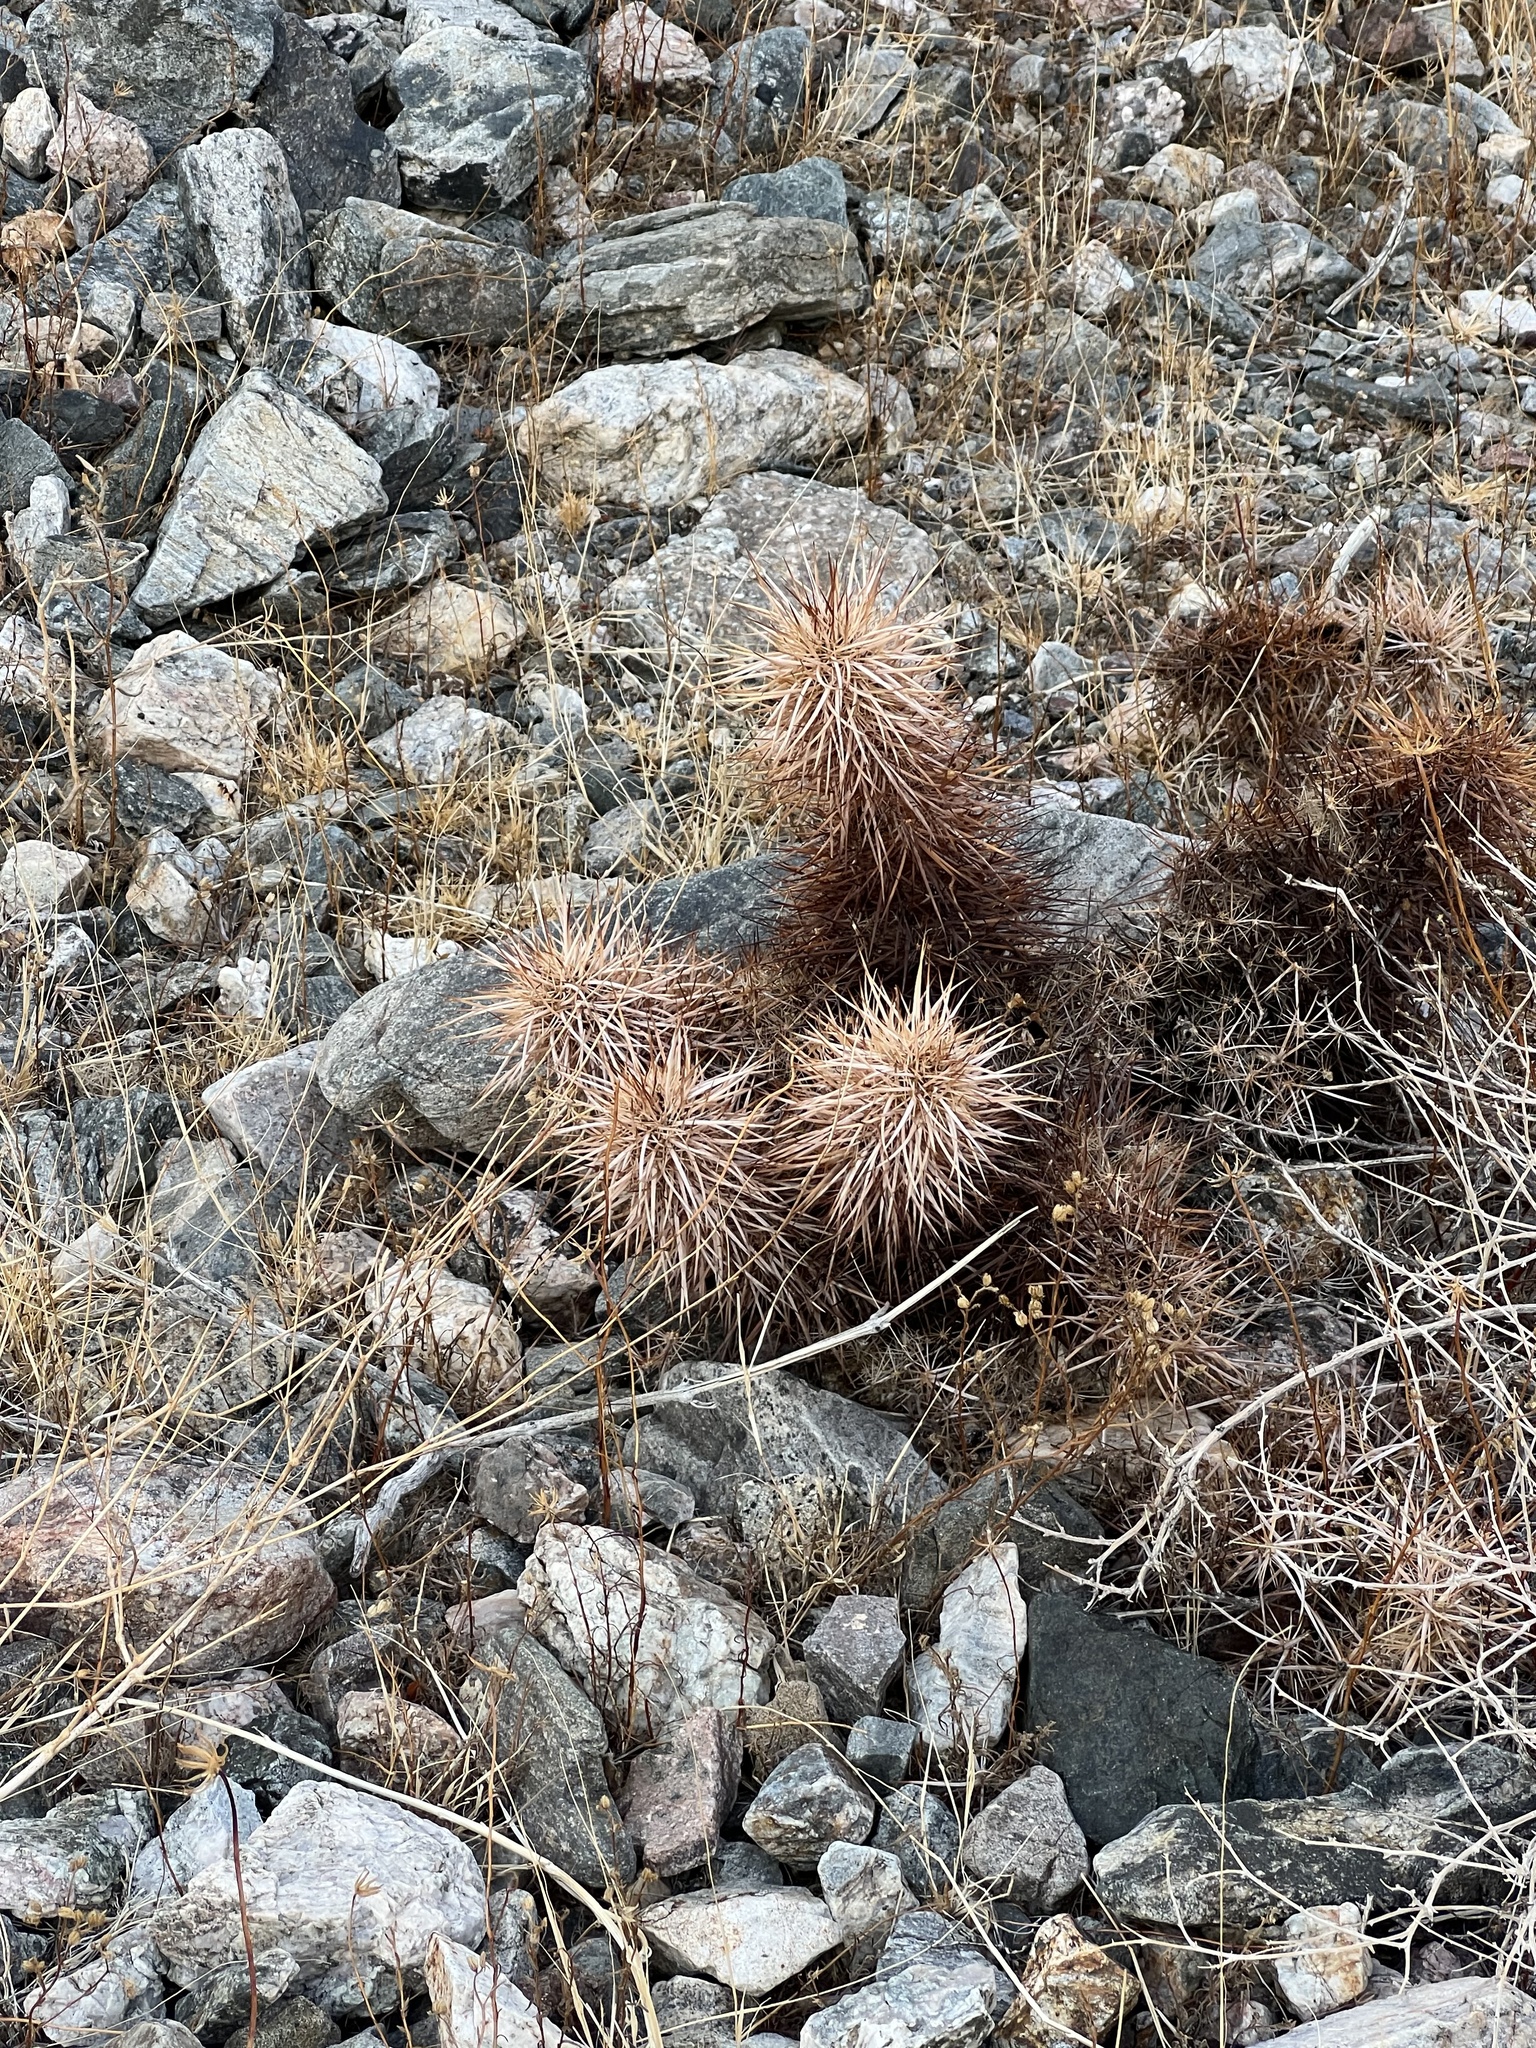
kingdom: Plantae
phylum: Tracheophyta
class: Magnoliopsida
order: Caryophyllales
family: Cactaceae
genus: Echinocereus
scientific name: Echinocereus engelmannii
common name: Engelmann's hedgehog cactus
